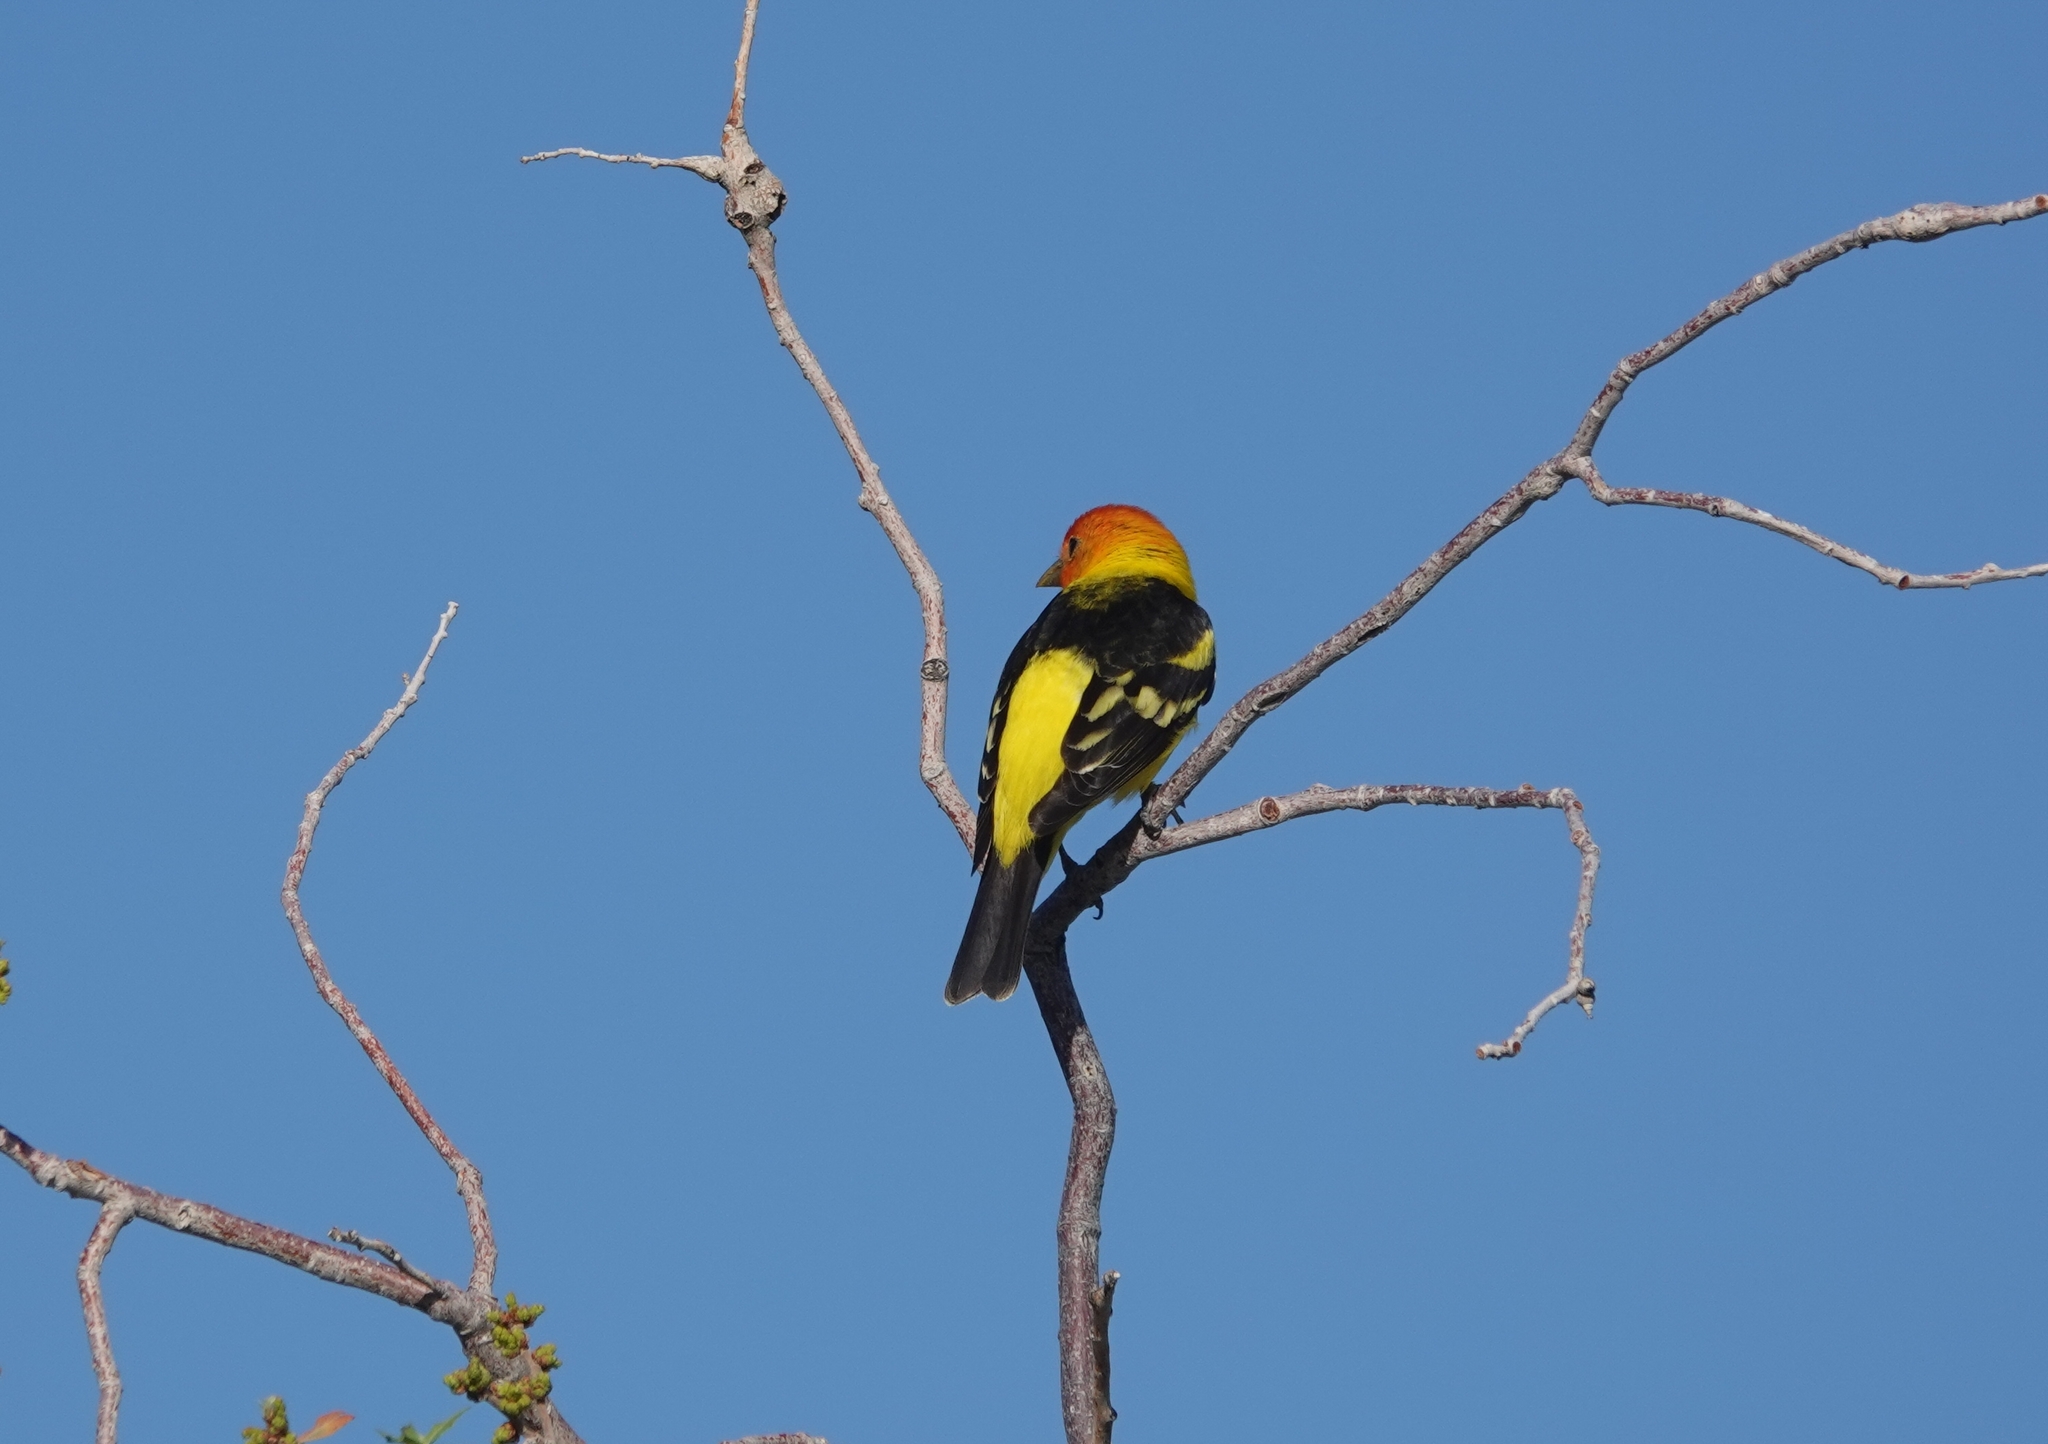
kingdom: Animalia
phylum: Chordata
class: Aves
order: Passeriformes
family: Cardinalidae
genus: Piranga
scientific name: Piranga ludoviciana
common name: Western tanager
